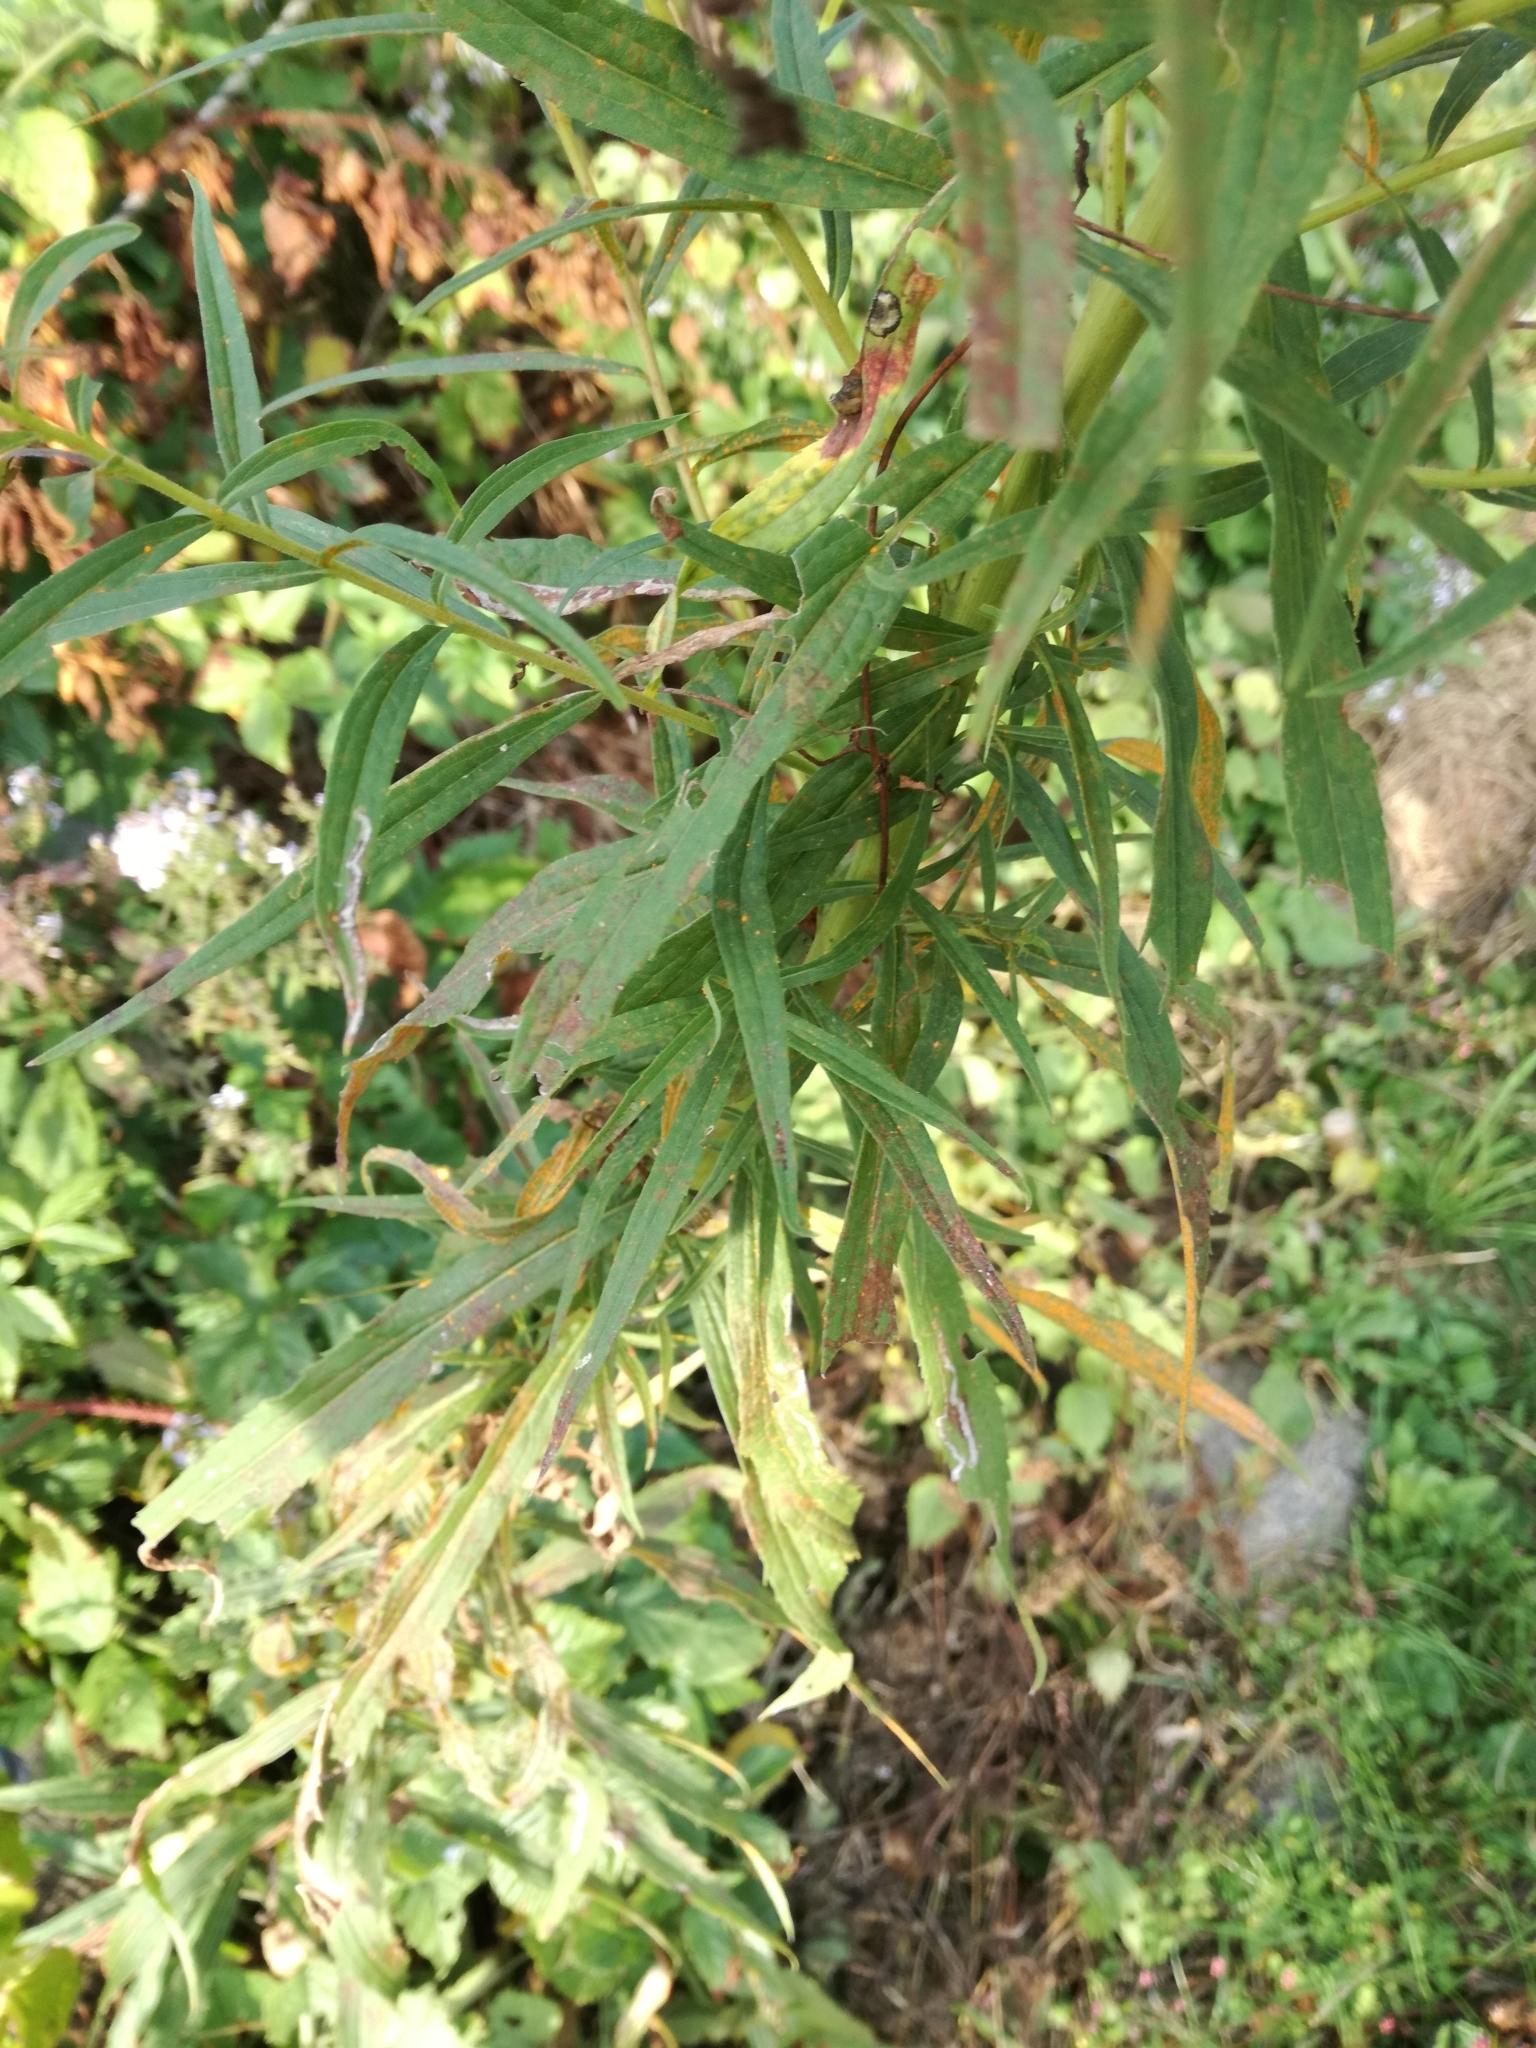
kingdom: Plantae
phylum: Tracheophyta
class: Magnoliopsida
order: Asterales
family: Asteraceae
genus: Solidago
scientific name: Solidago canadensis
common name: Canada goldenrod
